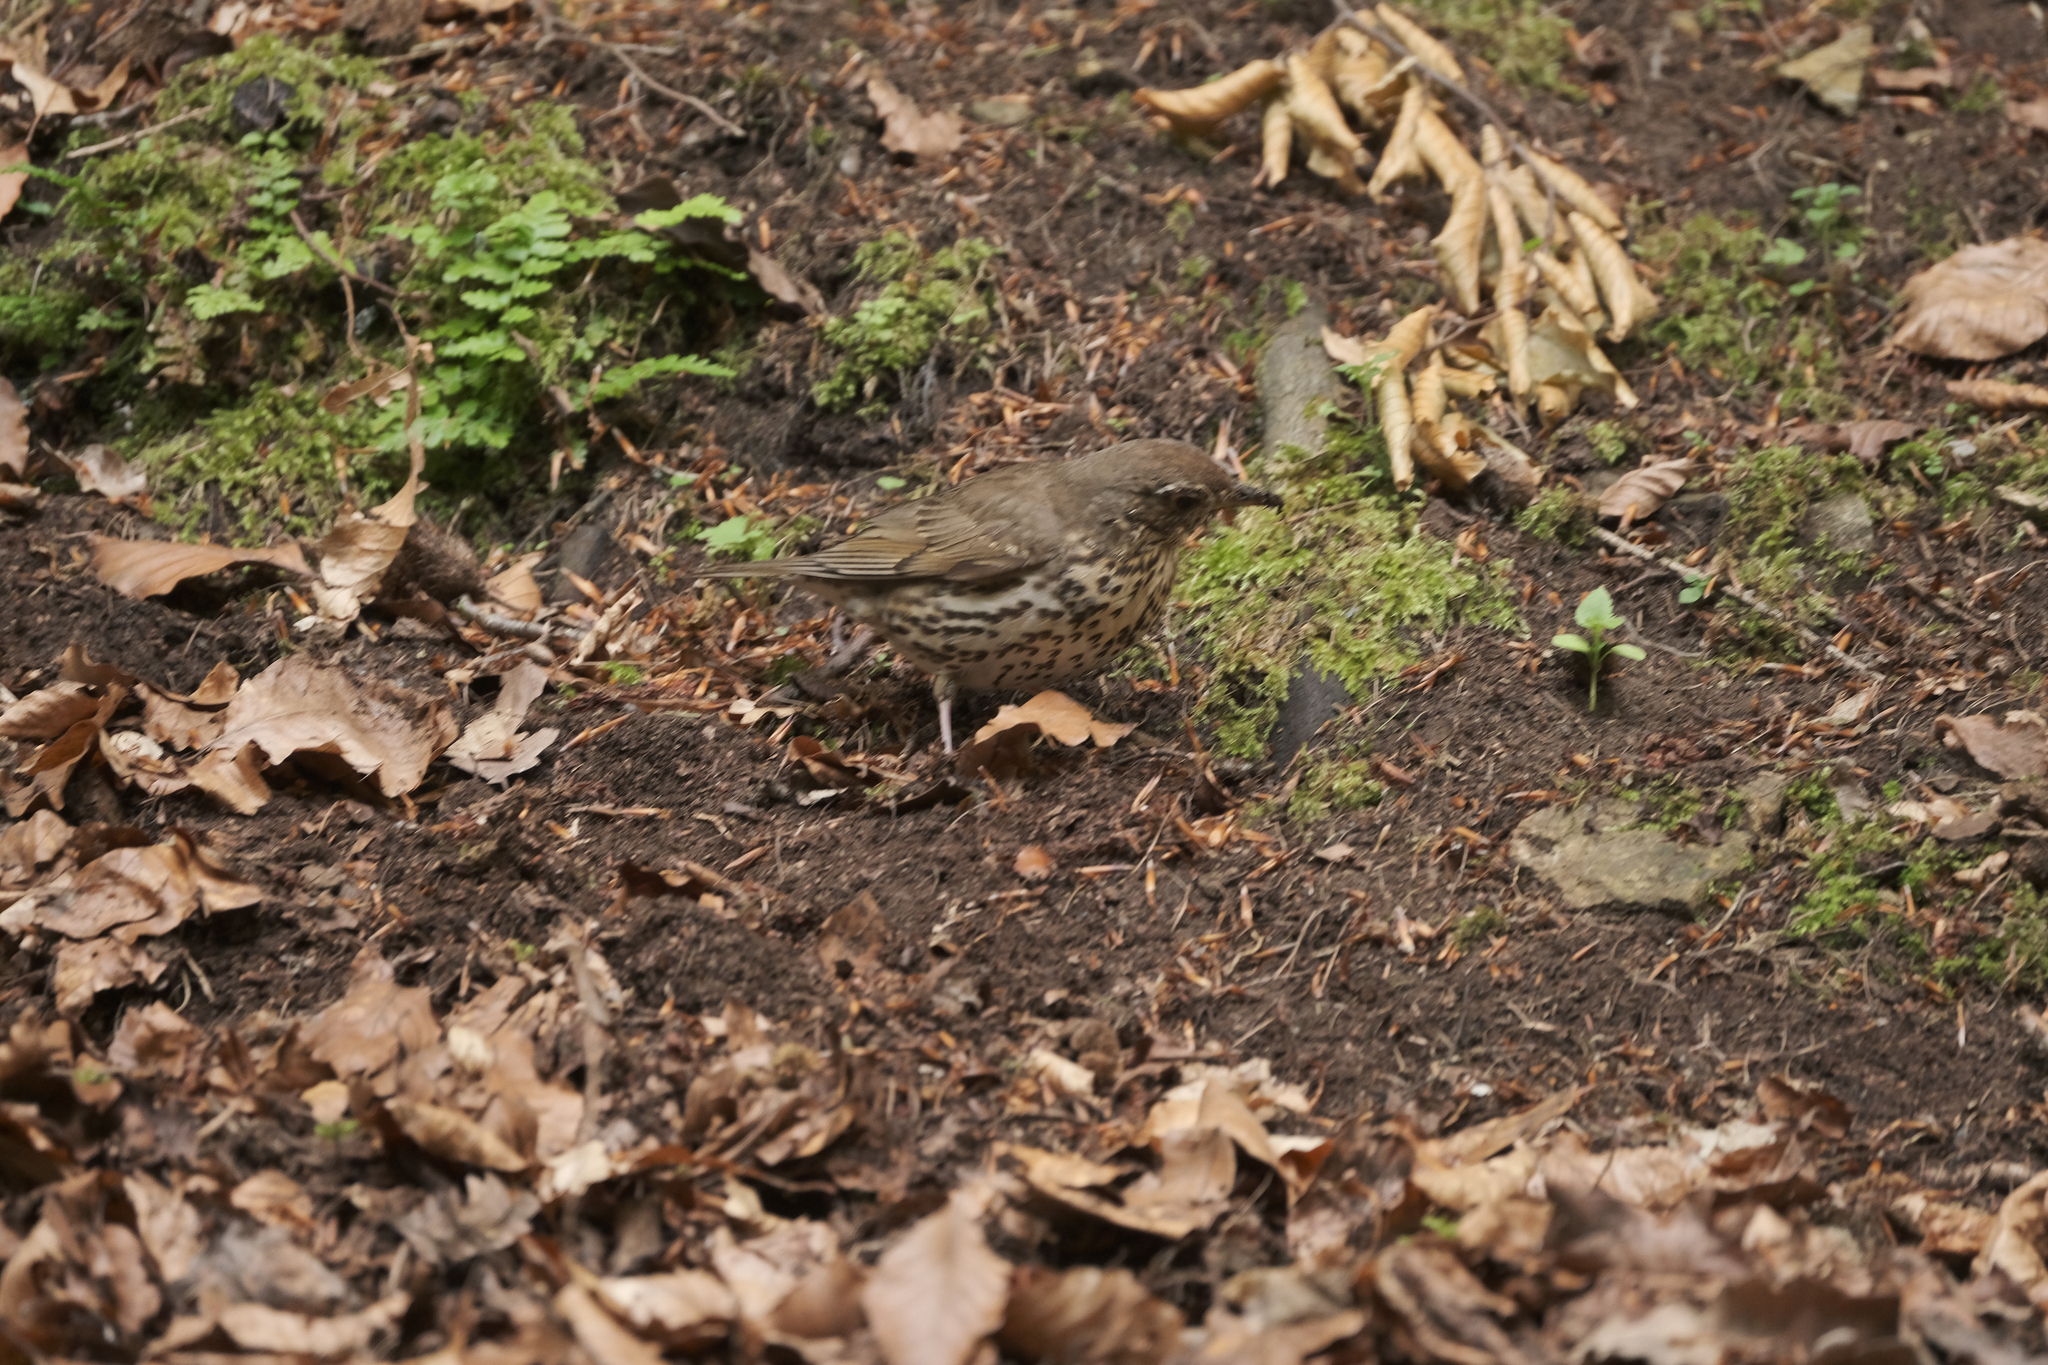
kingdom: Animalia
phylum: Chordata
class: Aves
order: Passeriformes
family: Turdidae
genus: Turdus
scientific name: Turdus philomelos
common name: Song thrush
